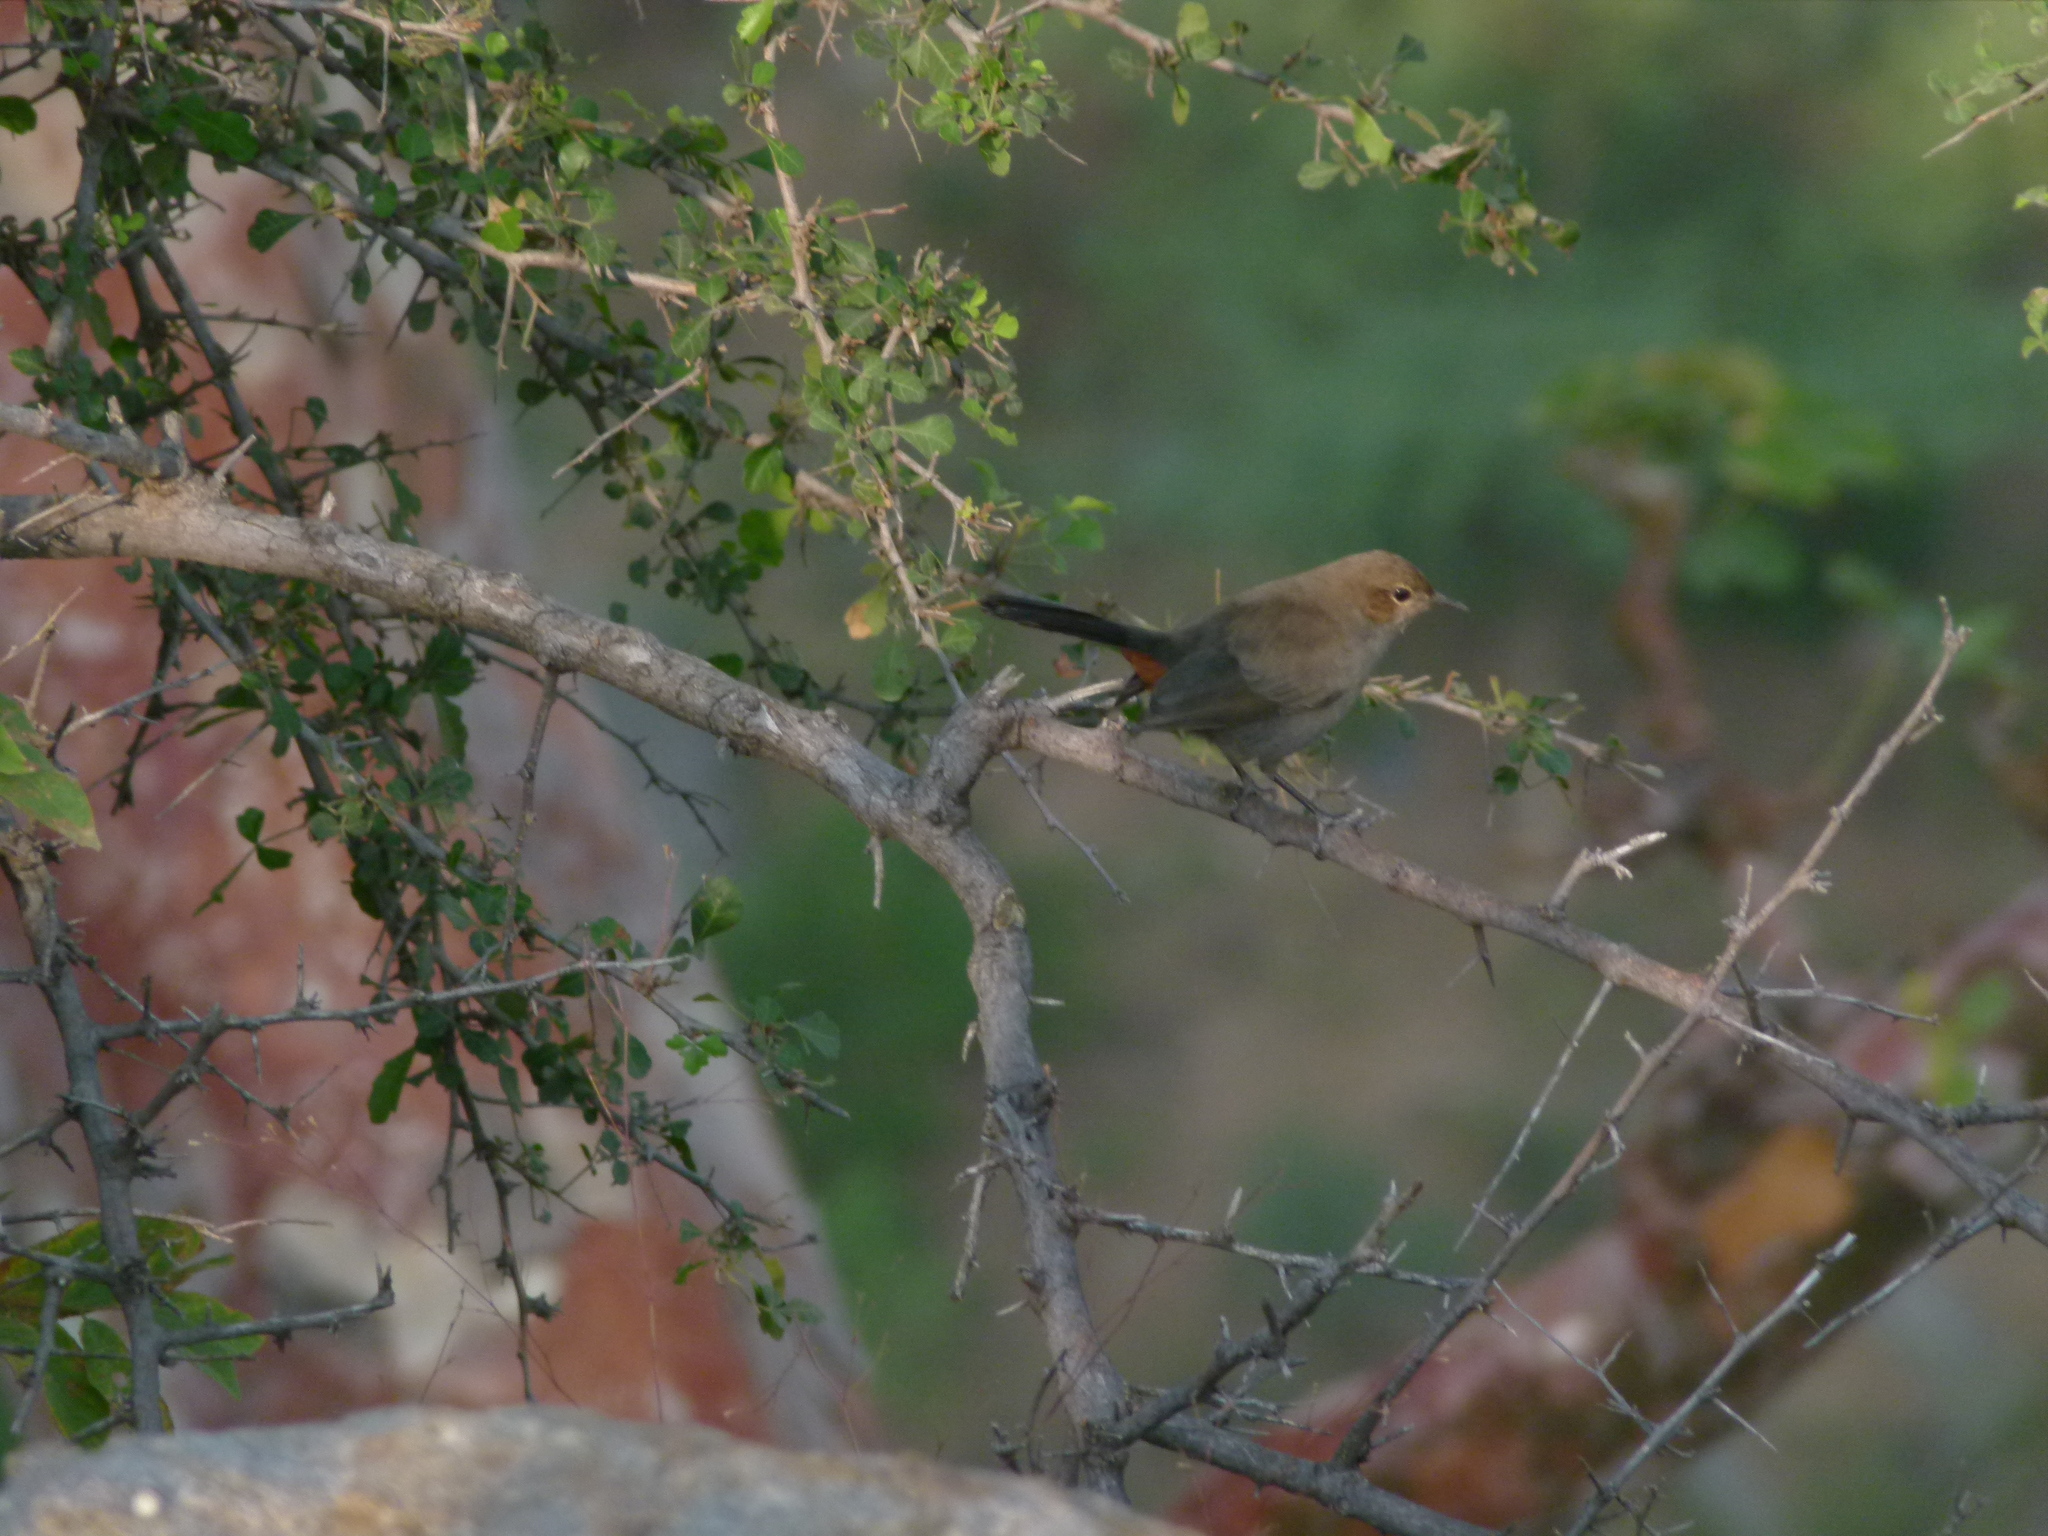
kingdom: Animalia
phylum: Chordata
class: Aves
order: Passeriformes
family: Muscicapidae
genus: Saxicoloides
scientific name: Saxicoloides fulicatus
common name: Indian robin
